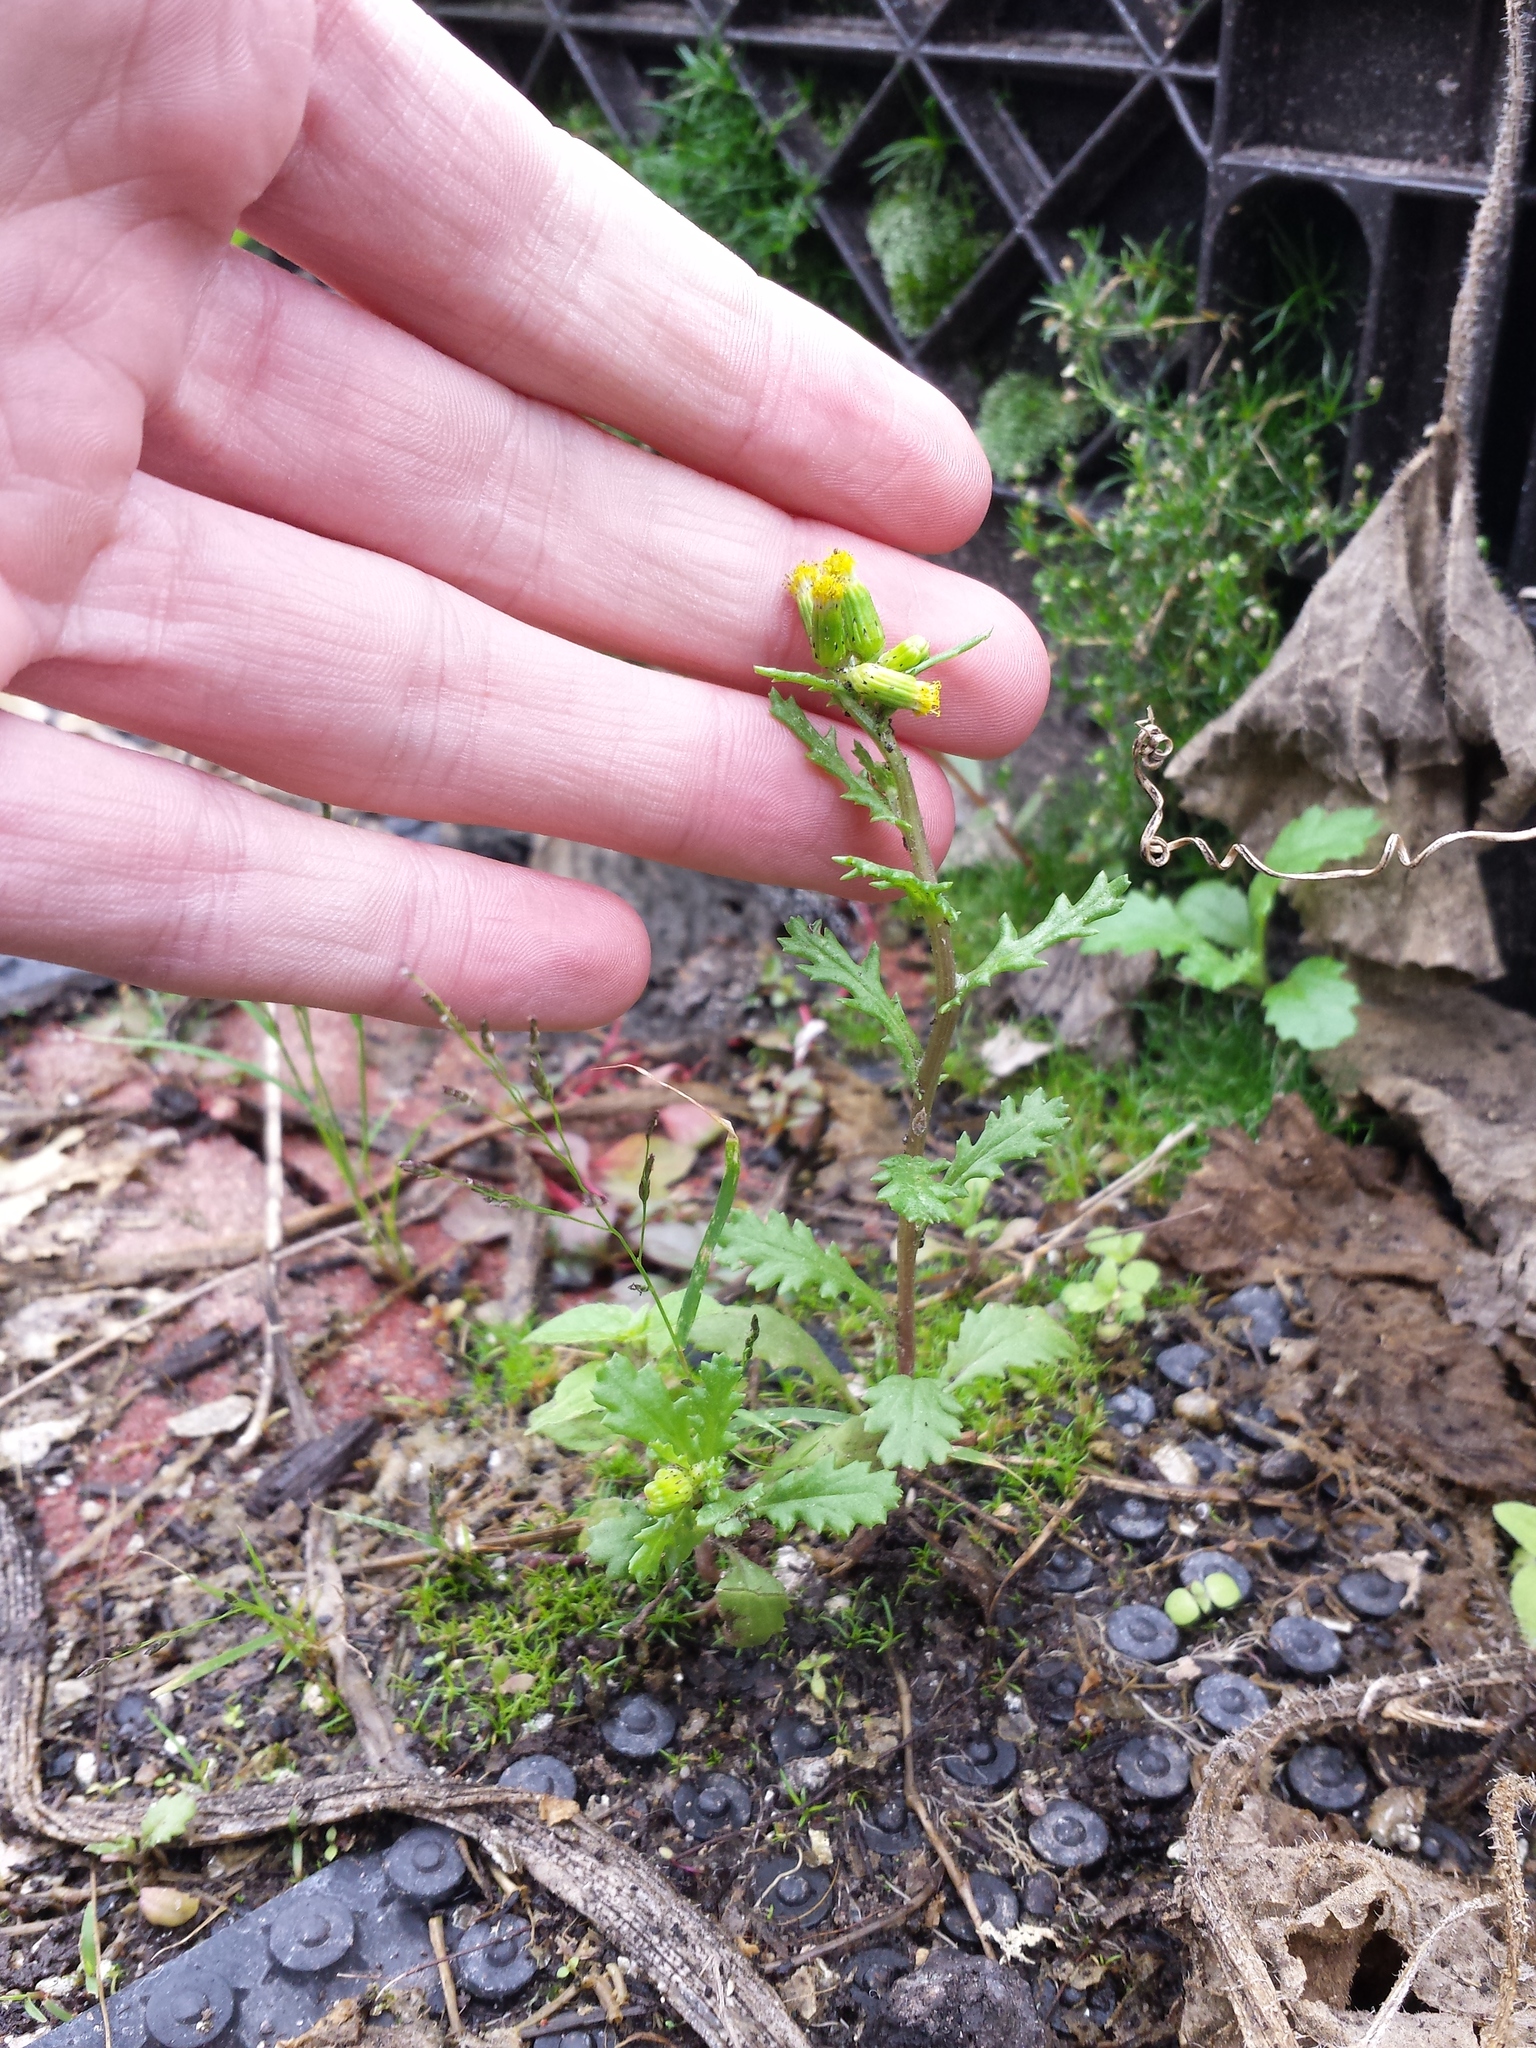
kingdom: Plantae
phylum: Tracheophyta
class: Magnoliopsida
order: Asterales
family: Asteraceae
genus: Senecio
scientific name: Senecio vulgaris
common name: Old-man-in-the-spring
